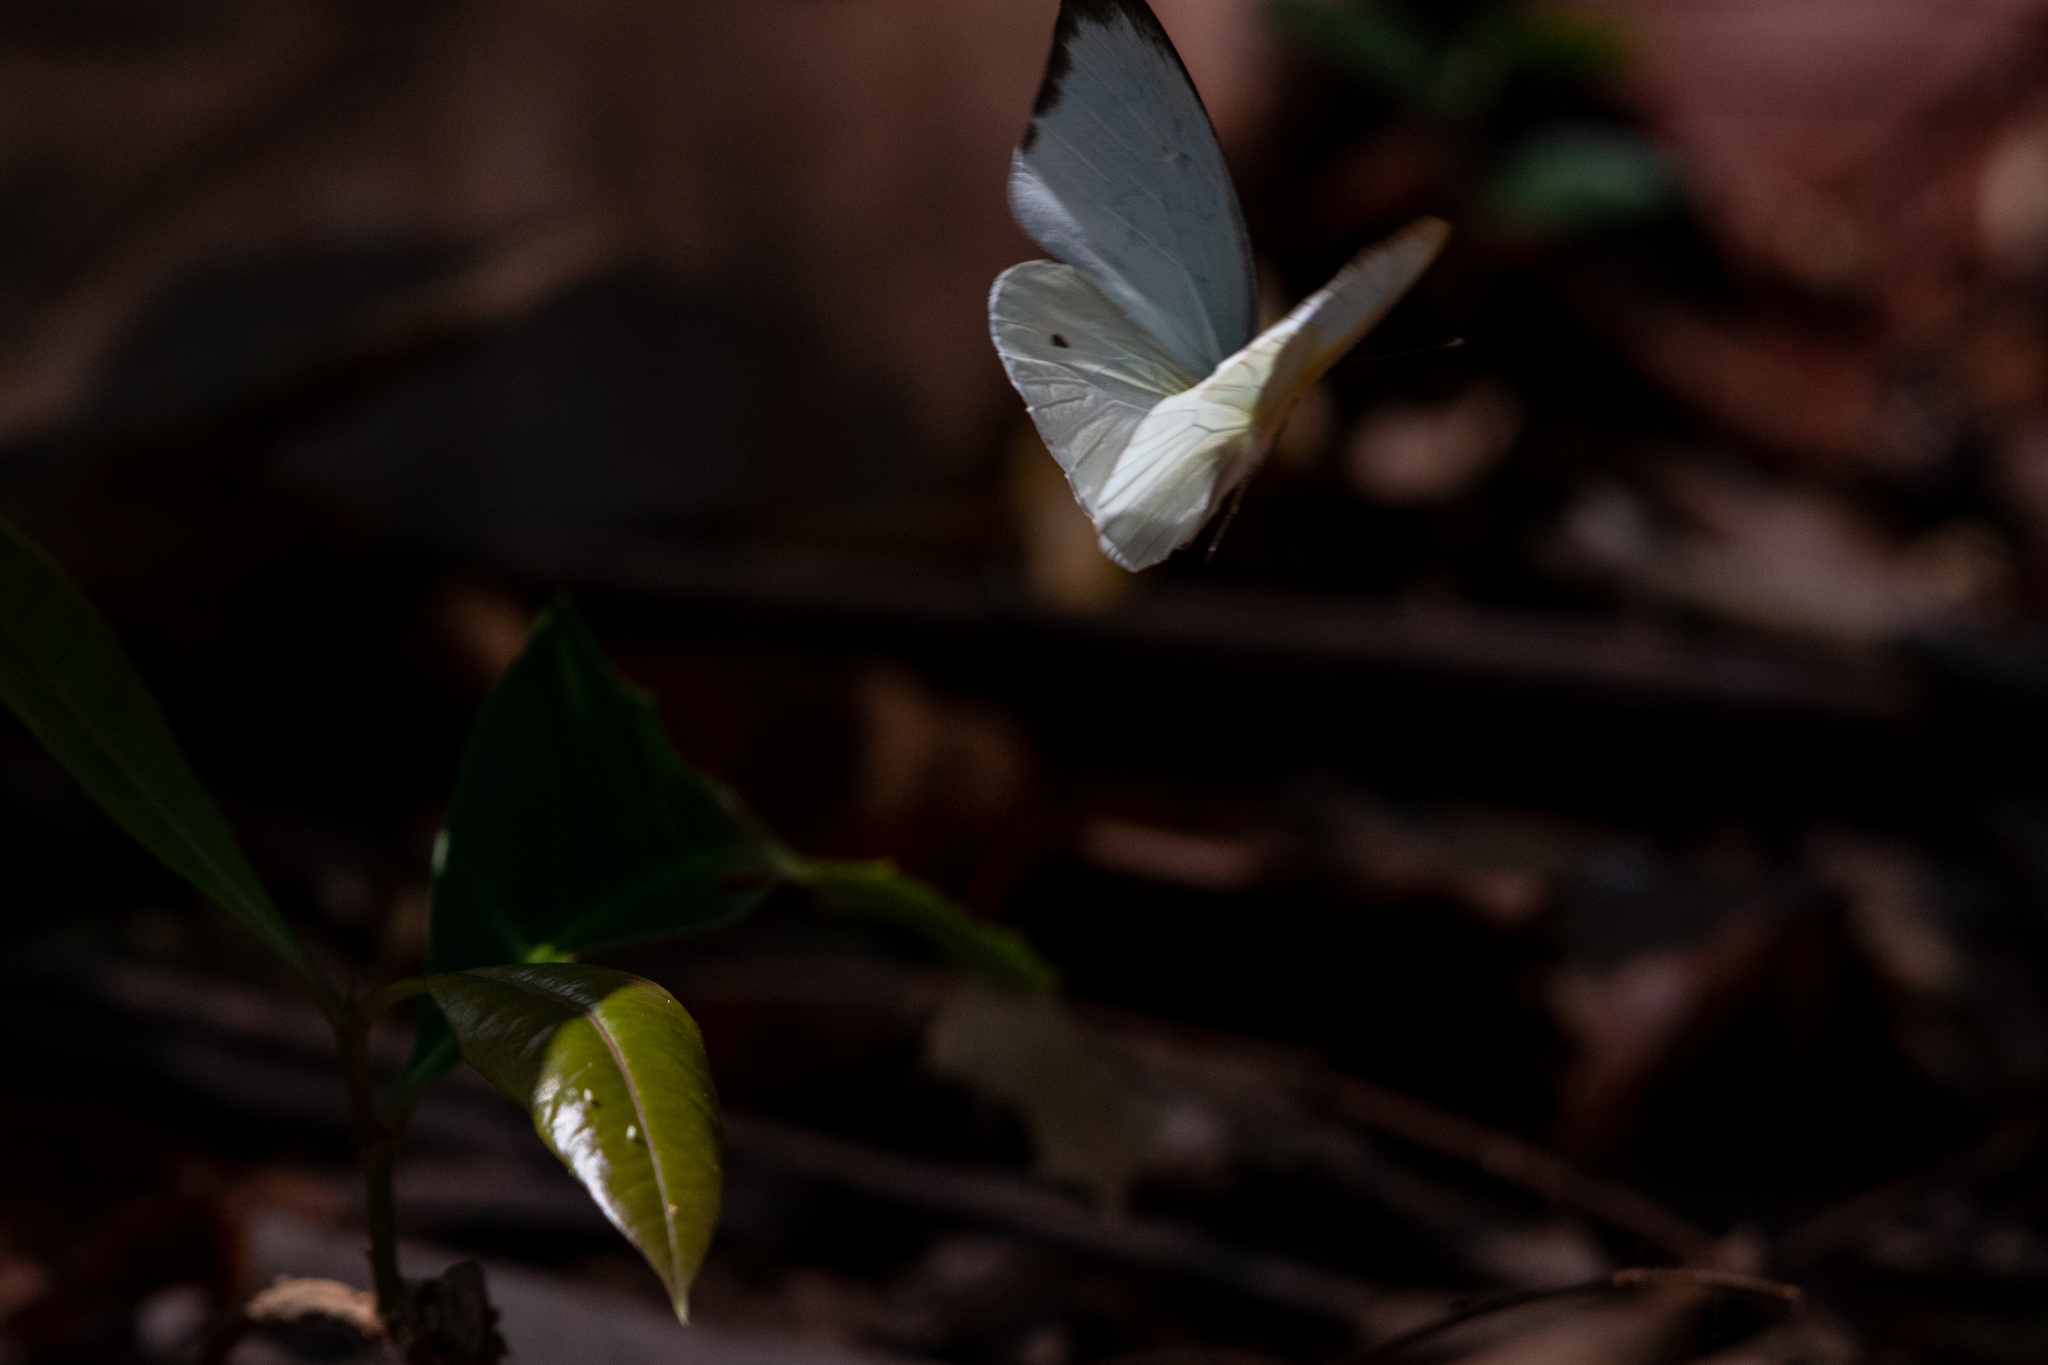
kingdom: Animalia
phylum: Arthropoda
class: Insecta
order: Lepidoptera
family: Pieridae
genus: Ascia
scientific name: Ascia monuste
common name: Great southern white
